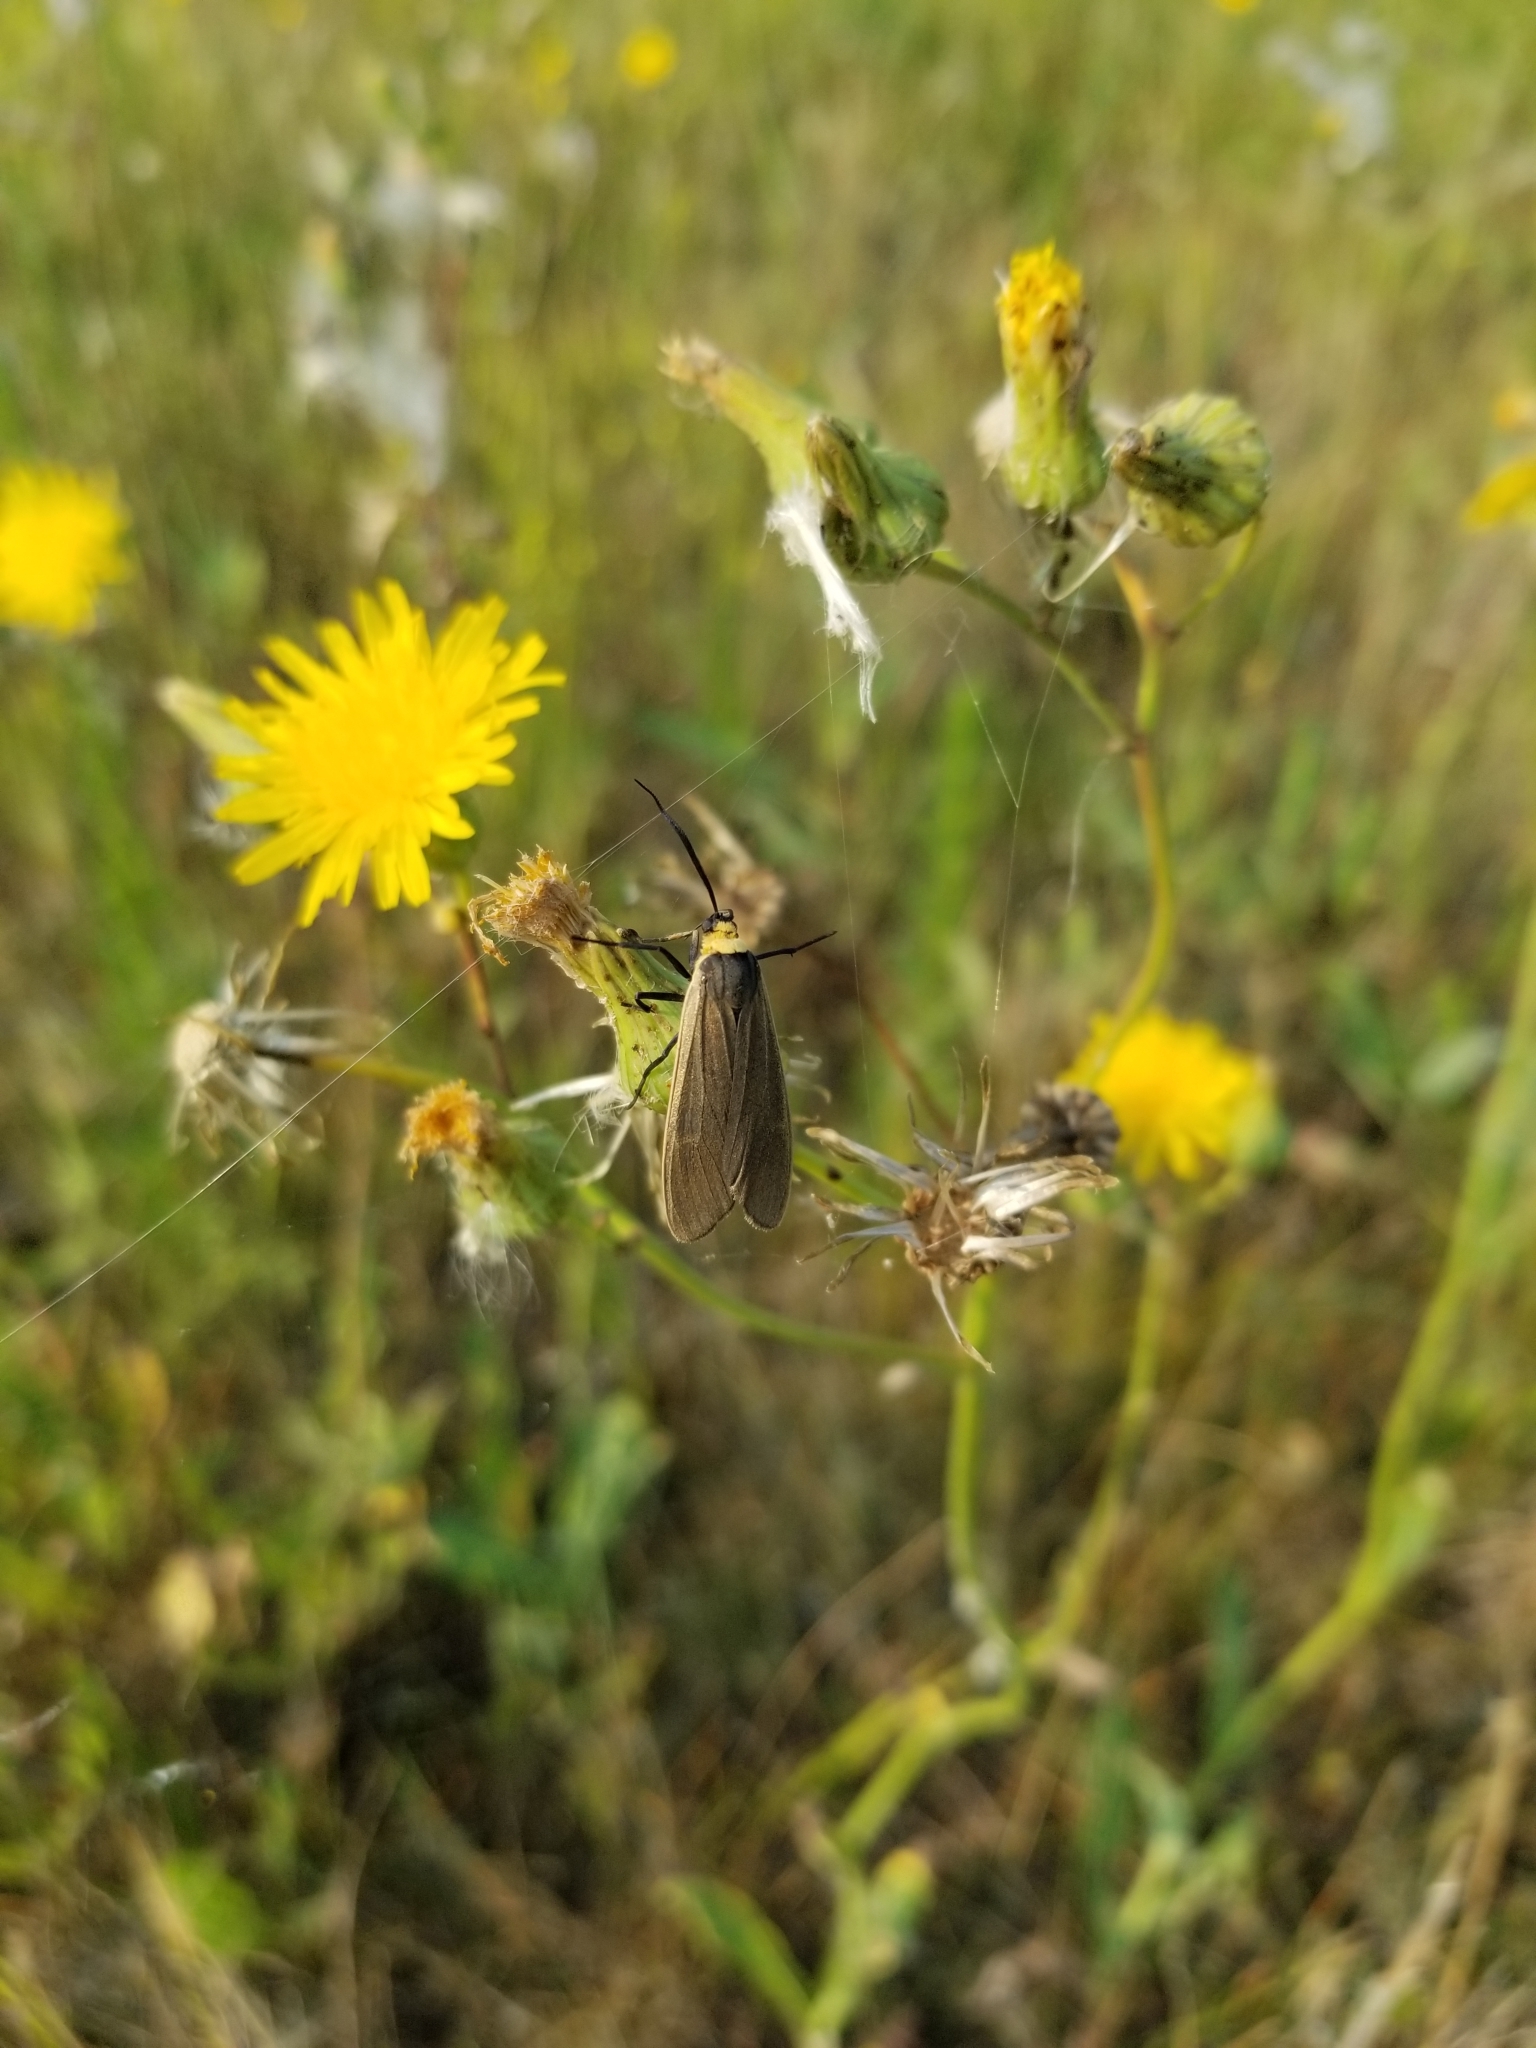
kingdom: Animalia
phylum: Arthropoda
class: Insecta
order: Lepidoptera
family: Erebidae
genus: Cisseps
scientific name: Cisseps fulvicollis
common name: Yellow-collared scape moth
